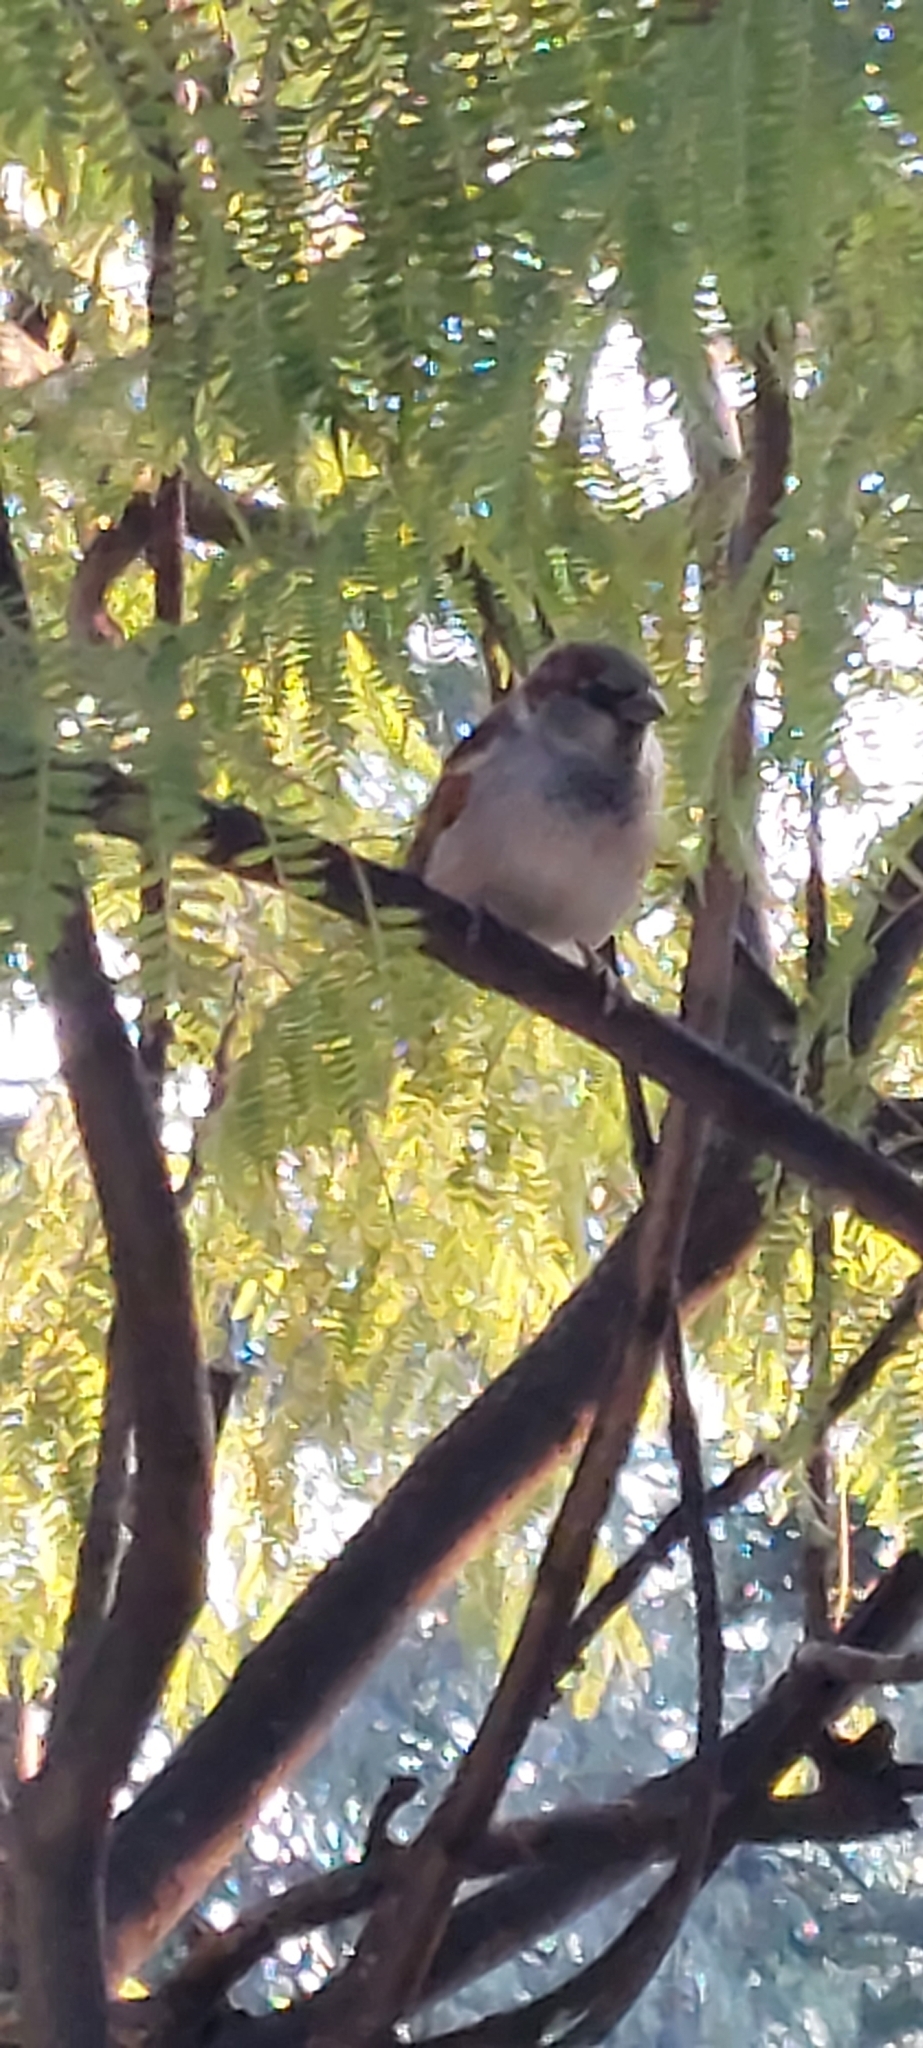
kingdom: Animalia
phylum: Chordata
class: Aves
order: Passeriformes
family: Passeridae
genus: Passer
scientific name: Passer domesticus
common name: House sparrow
